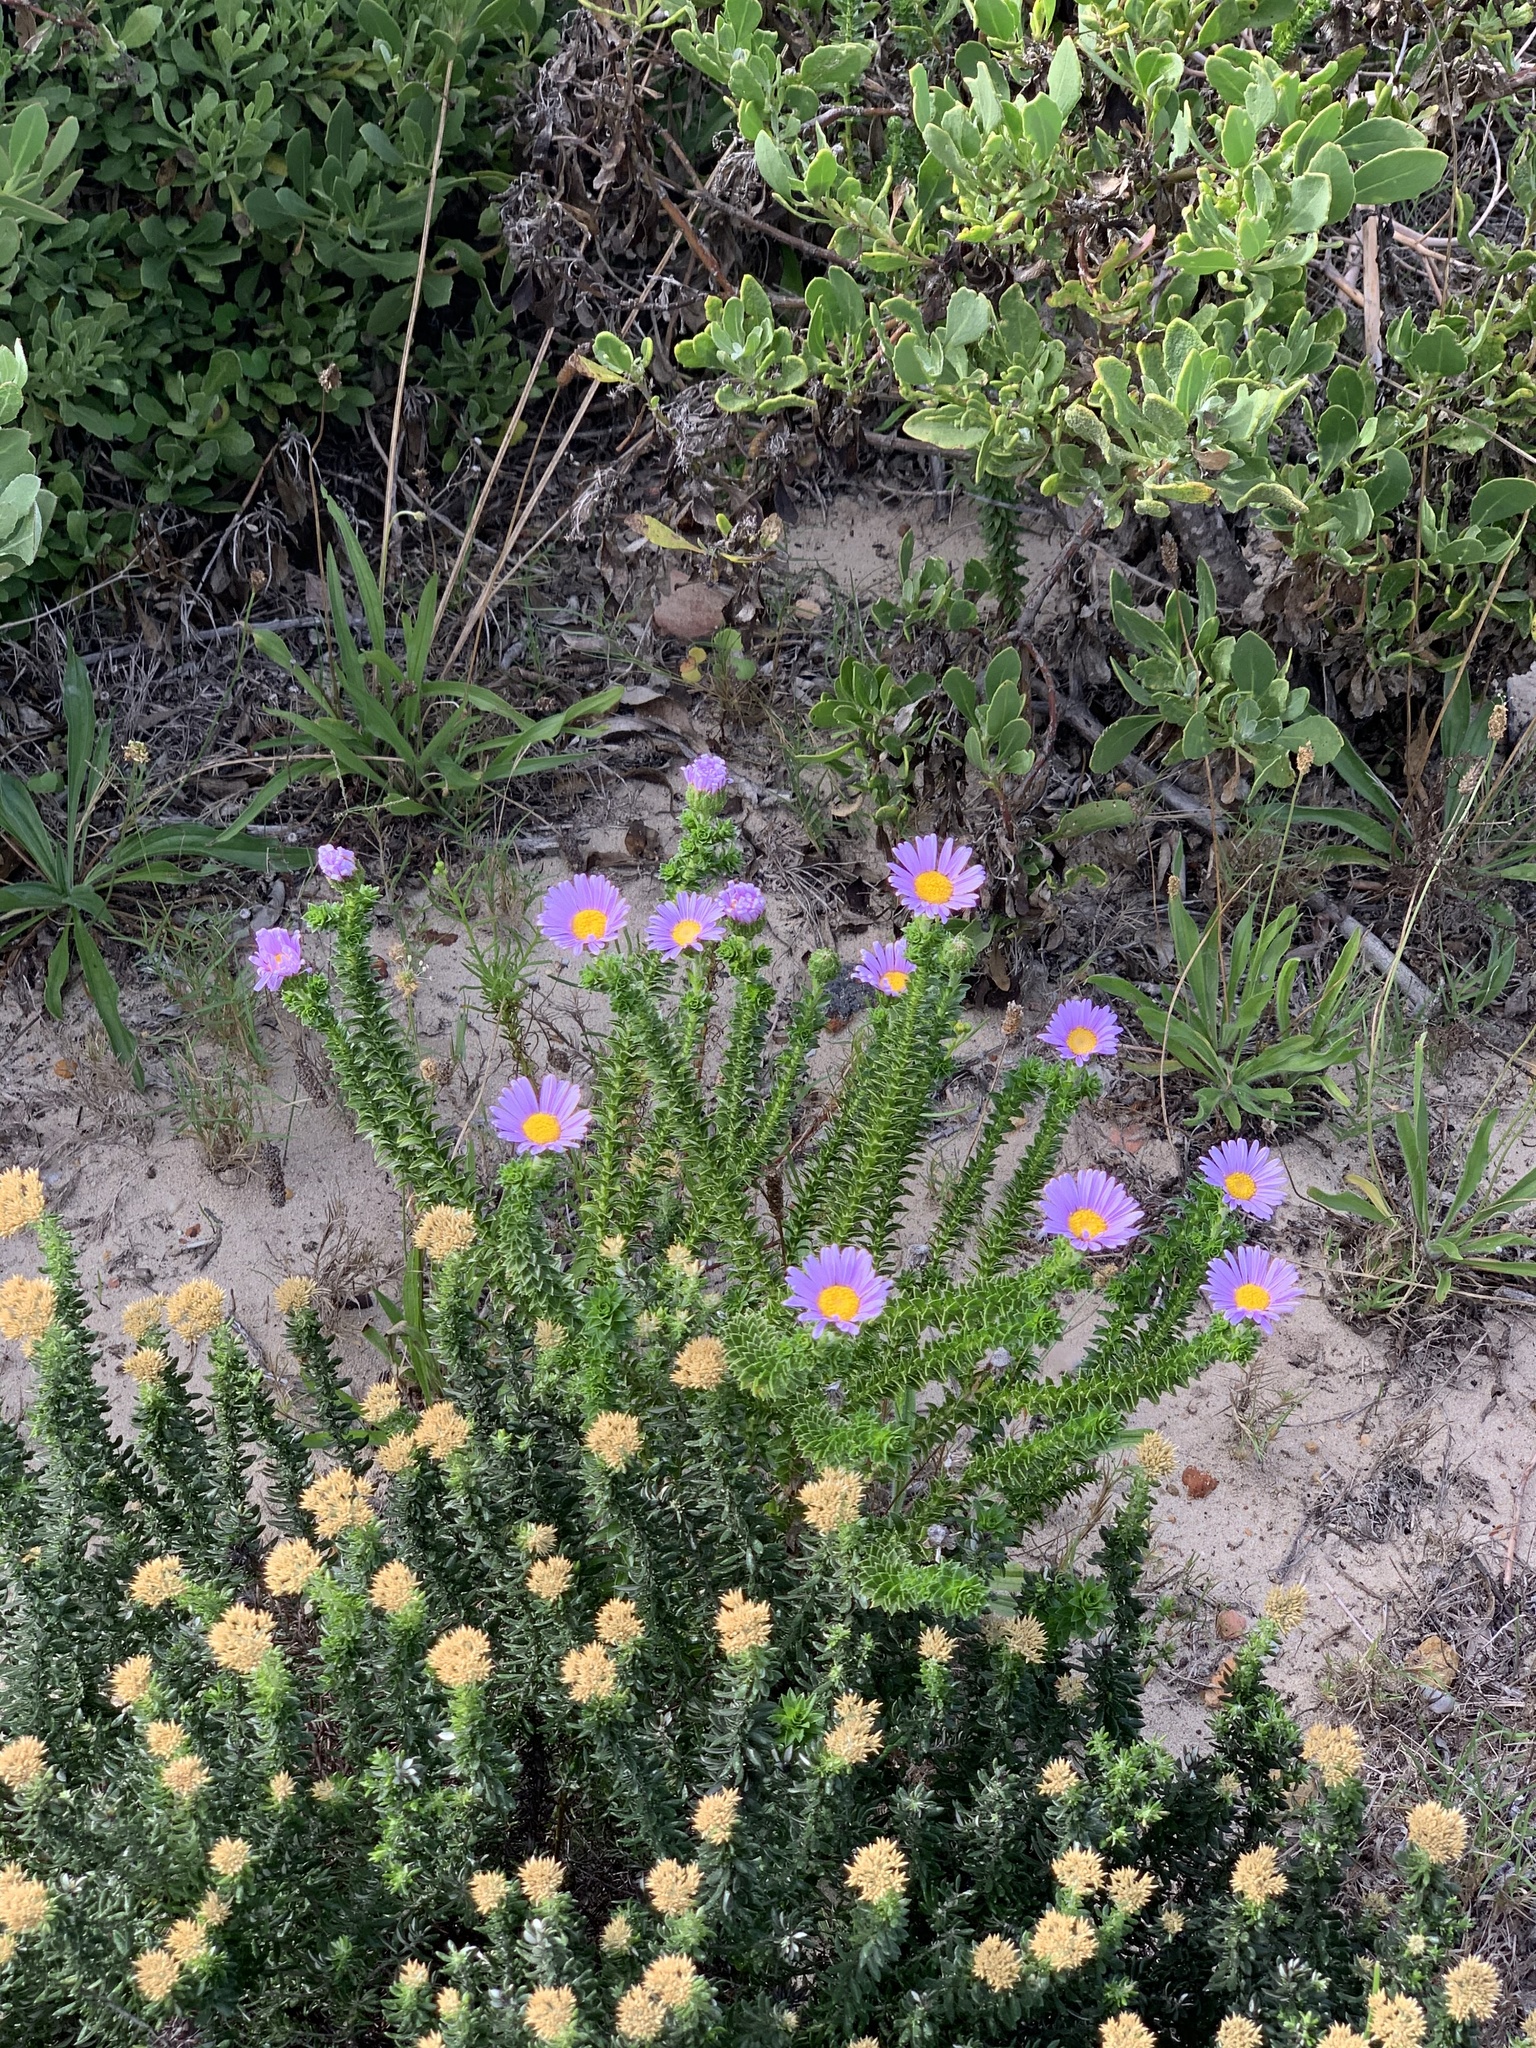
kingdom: Plantae
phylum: Tracheophyta
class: Magnoliopsida
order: Asterales
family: Asteraceae
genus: Felicia
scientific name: Felicia echinata
